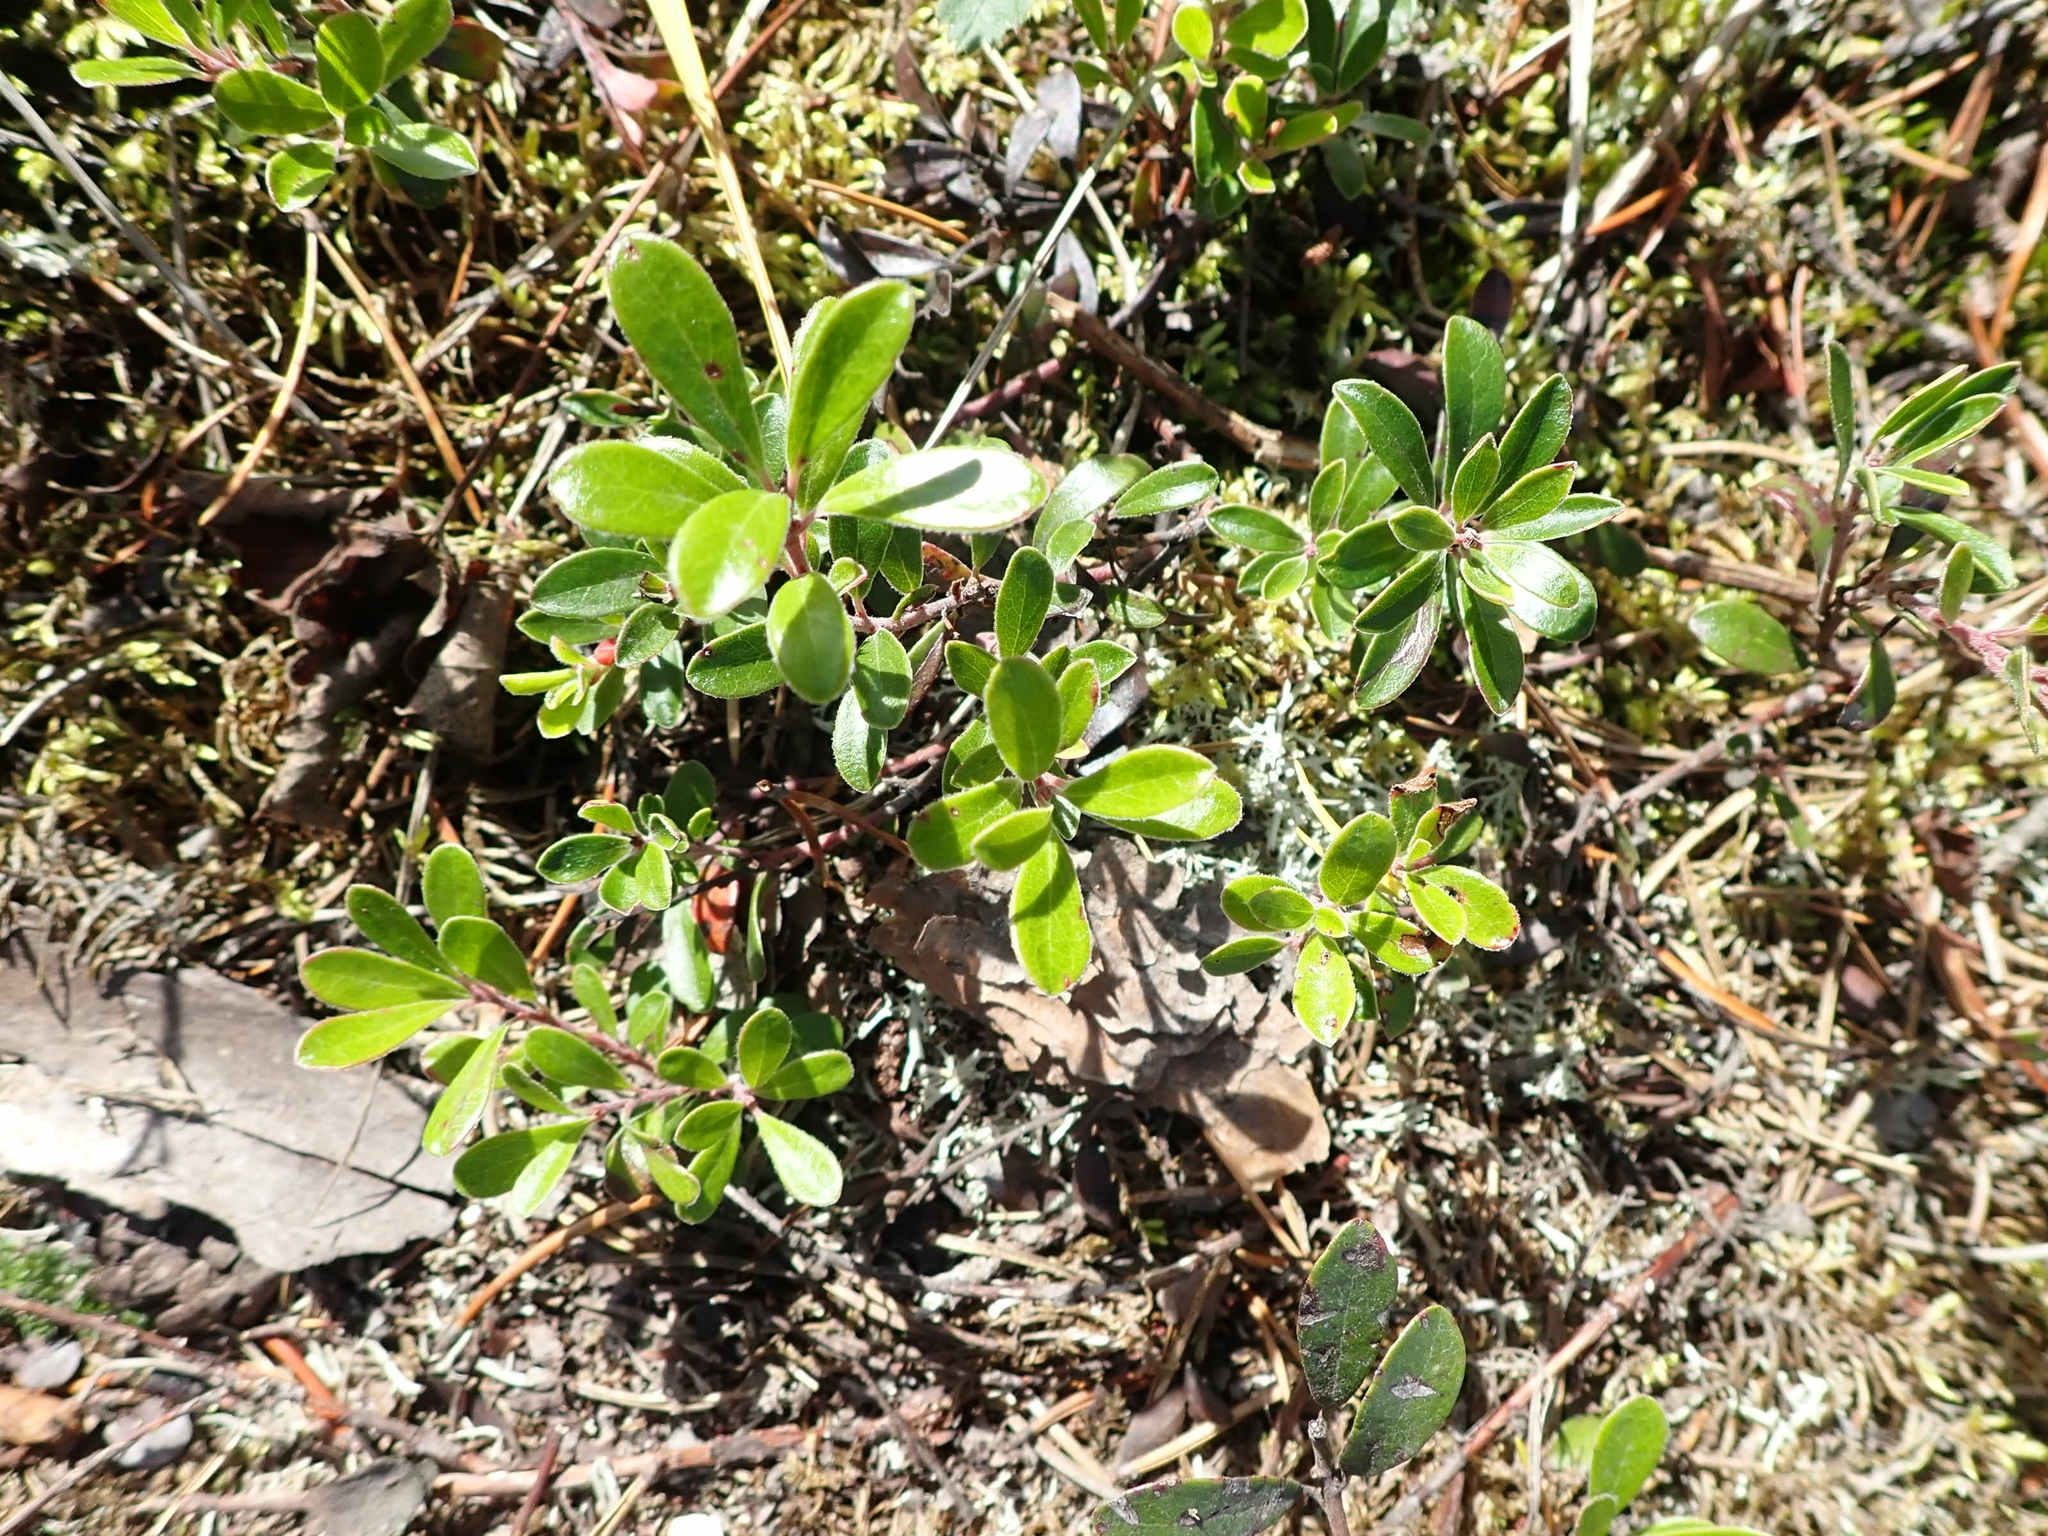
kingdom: Plantae
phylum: Tracheophyta
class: Magnoliopsida
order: Ericales
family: Ericaceae
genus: Arctostaphylos
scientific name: Arctostaphylos uva-ursi
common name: Bearberry
